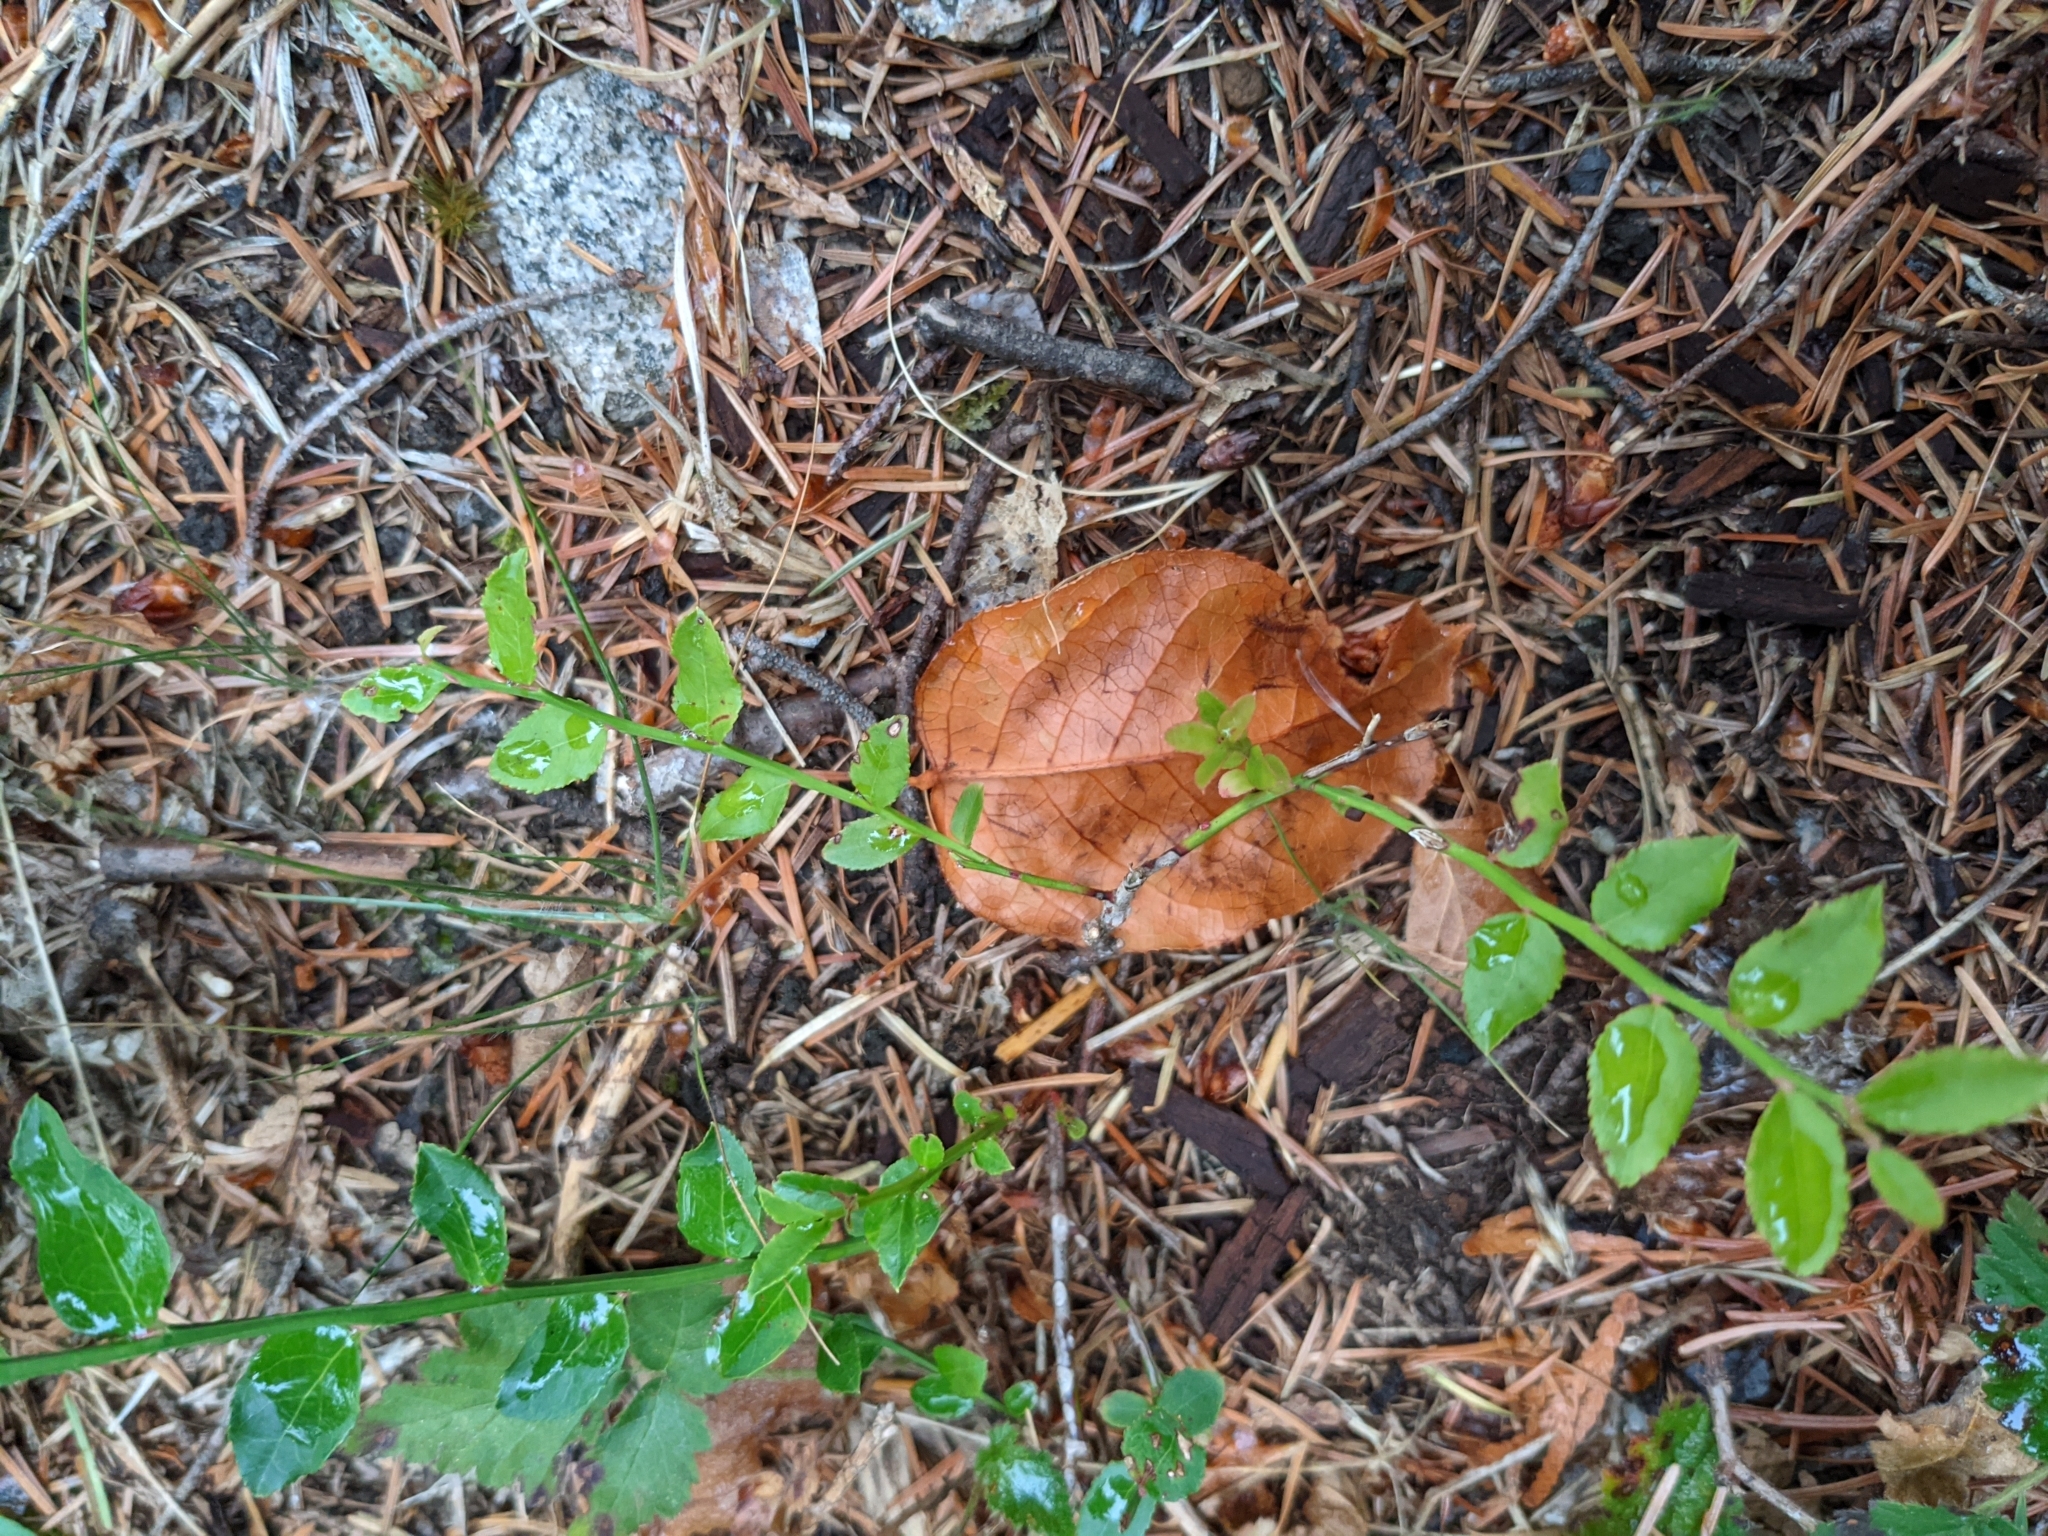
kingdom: Plantae
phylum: Tracheophyta
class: Magnoliopsida
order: Ericales
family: Ericaceae
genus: Vaccinium
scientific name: Vaccinium parvifolium
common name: Red-huckleberry
